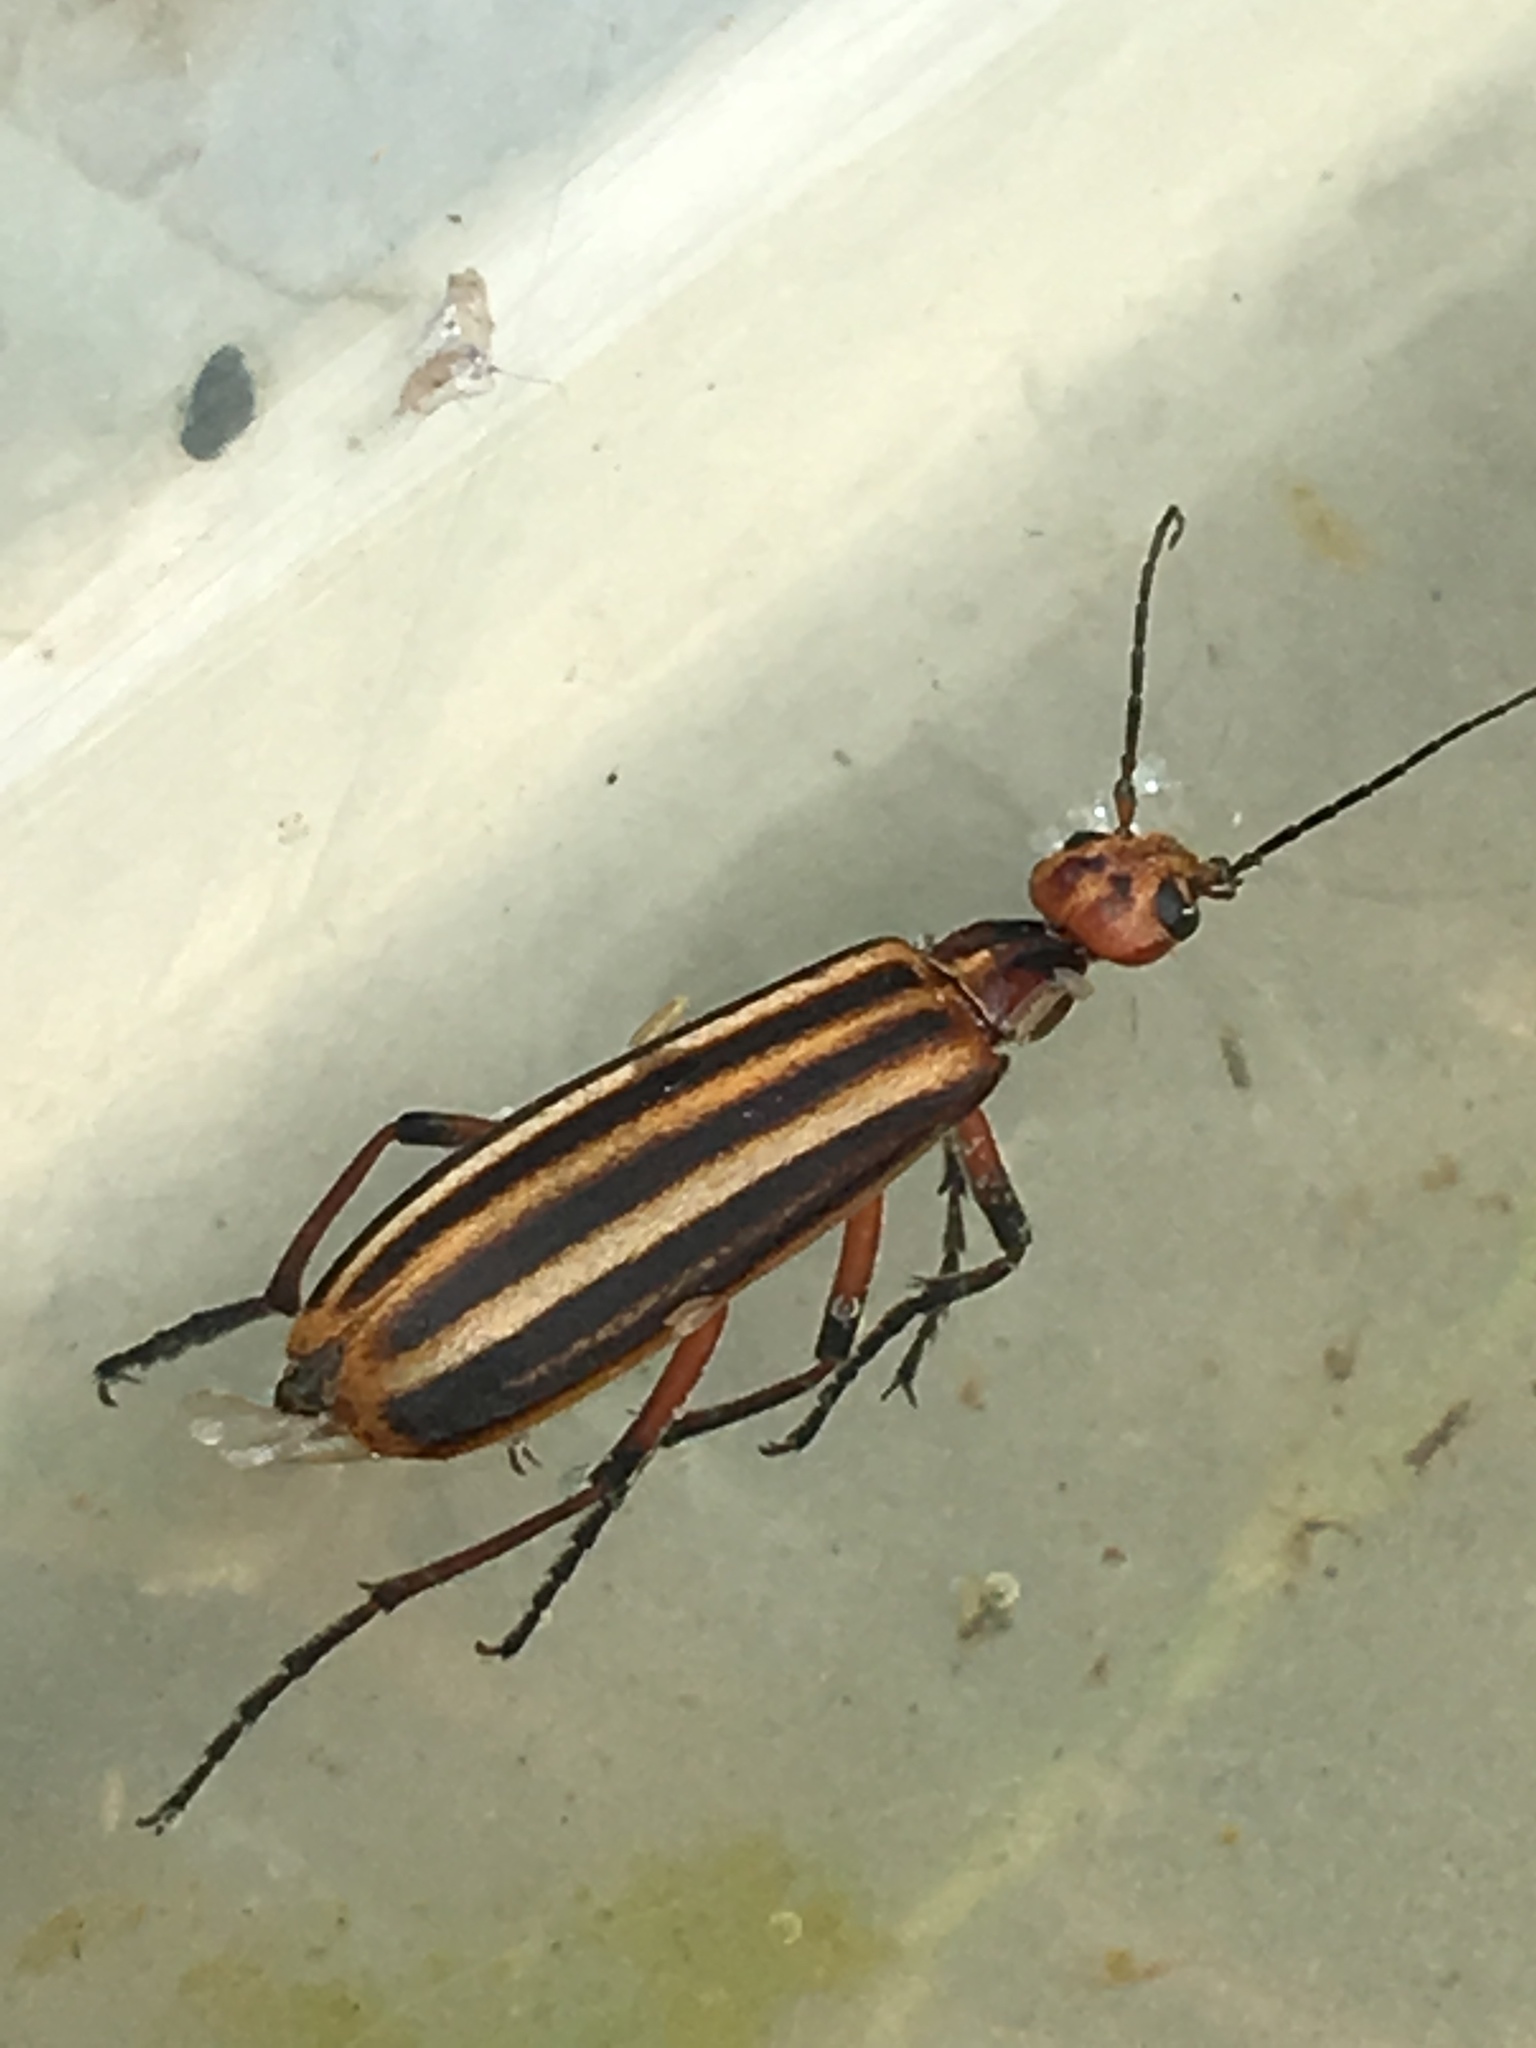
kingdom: Animalia
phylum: Arthropoda
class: Insecta
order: Coleoptera
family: Meloidae
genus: Epicauta
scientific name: Epicauta vittata
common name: Old-fashioned potato beetle
